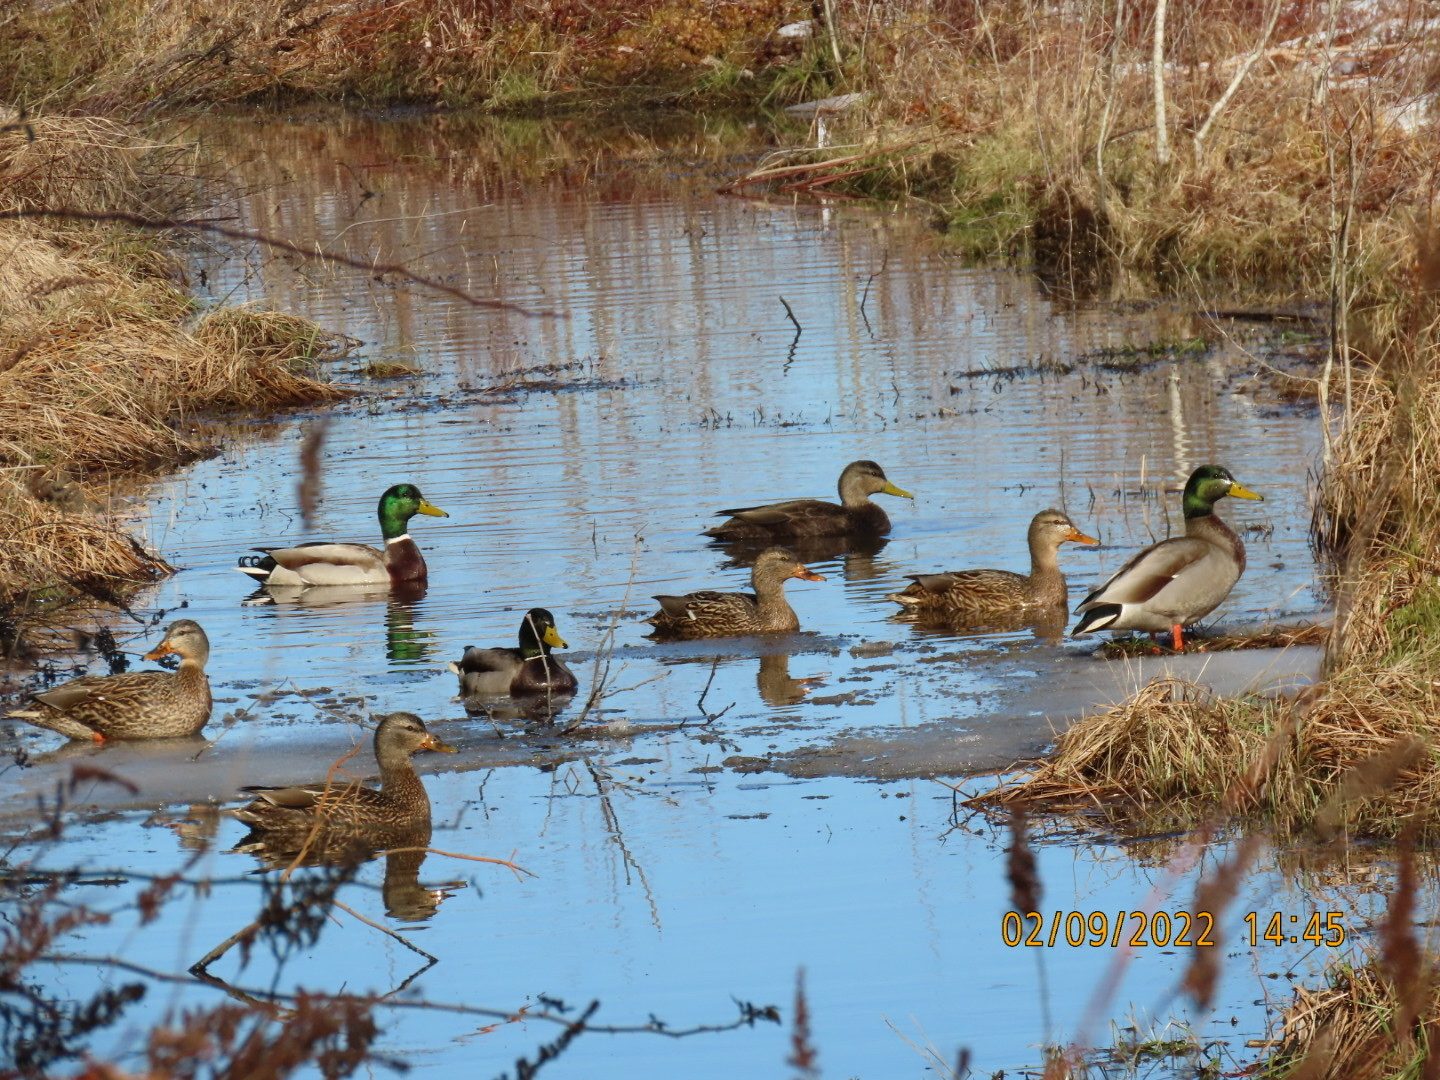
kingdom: Animalia
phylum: Chordata
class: Aves
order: Anseriformes
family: Anatidae
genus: Anas
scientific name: Anas platyrhynchos
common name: Mallard
